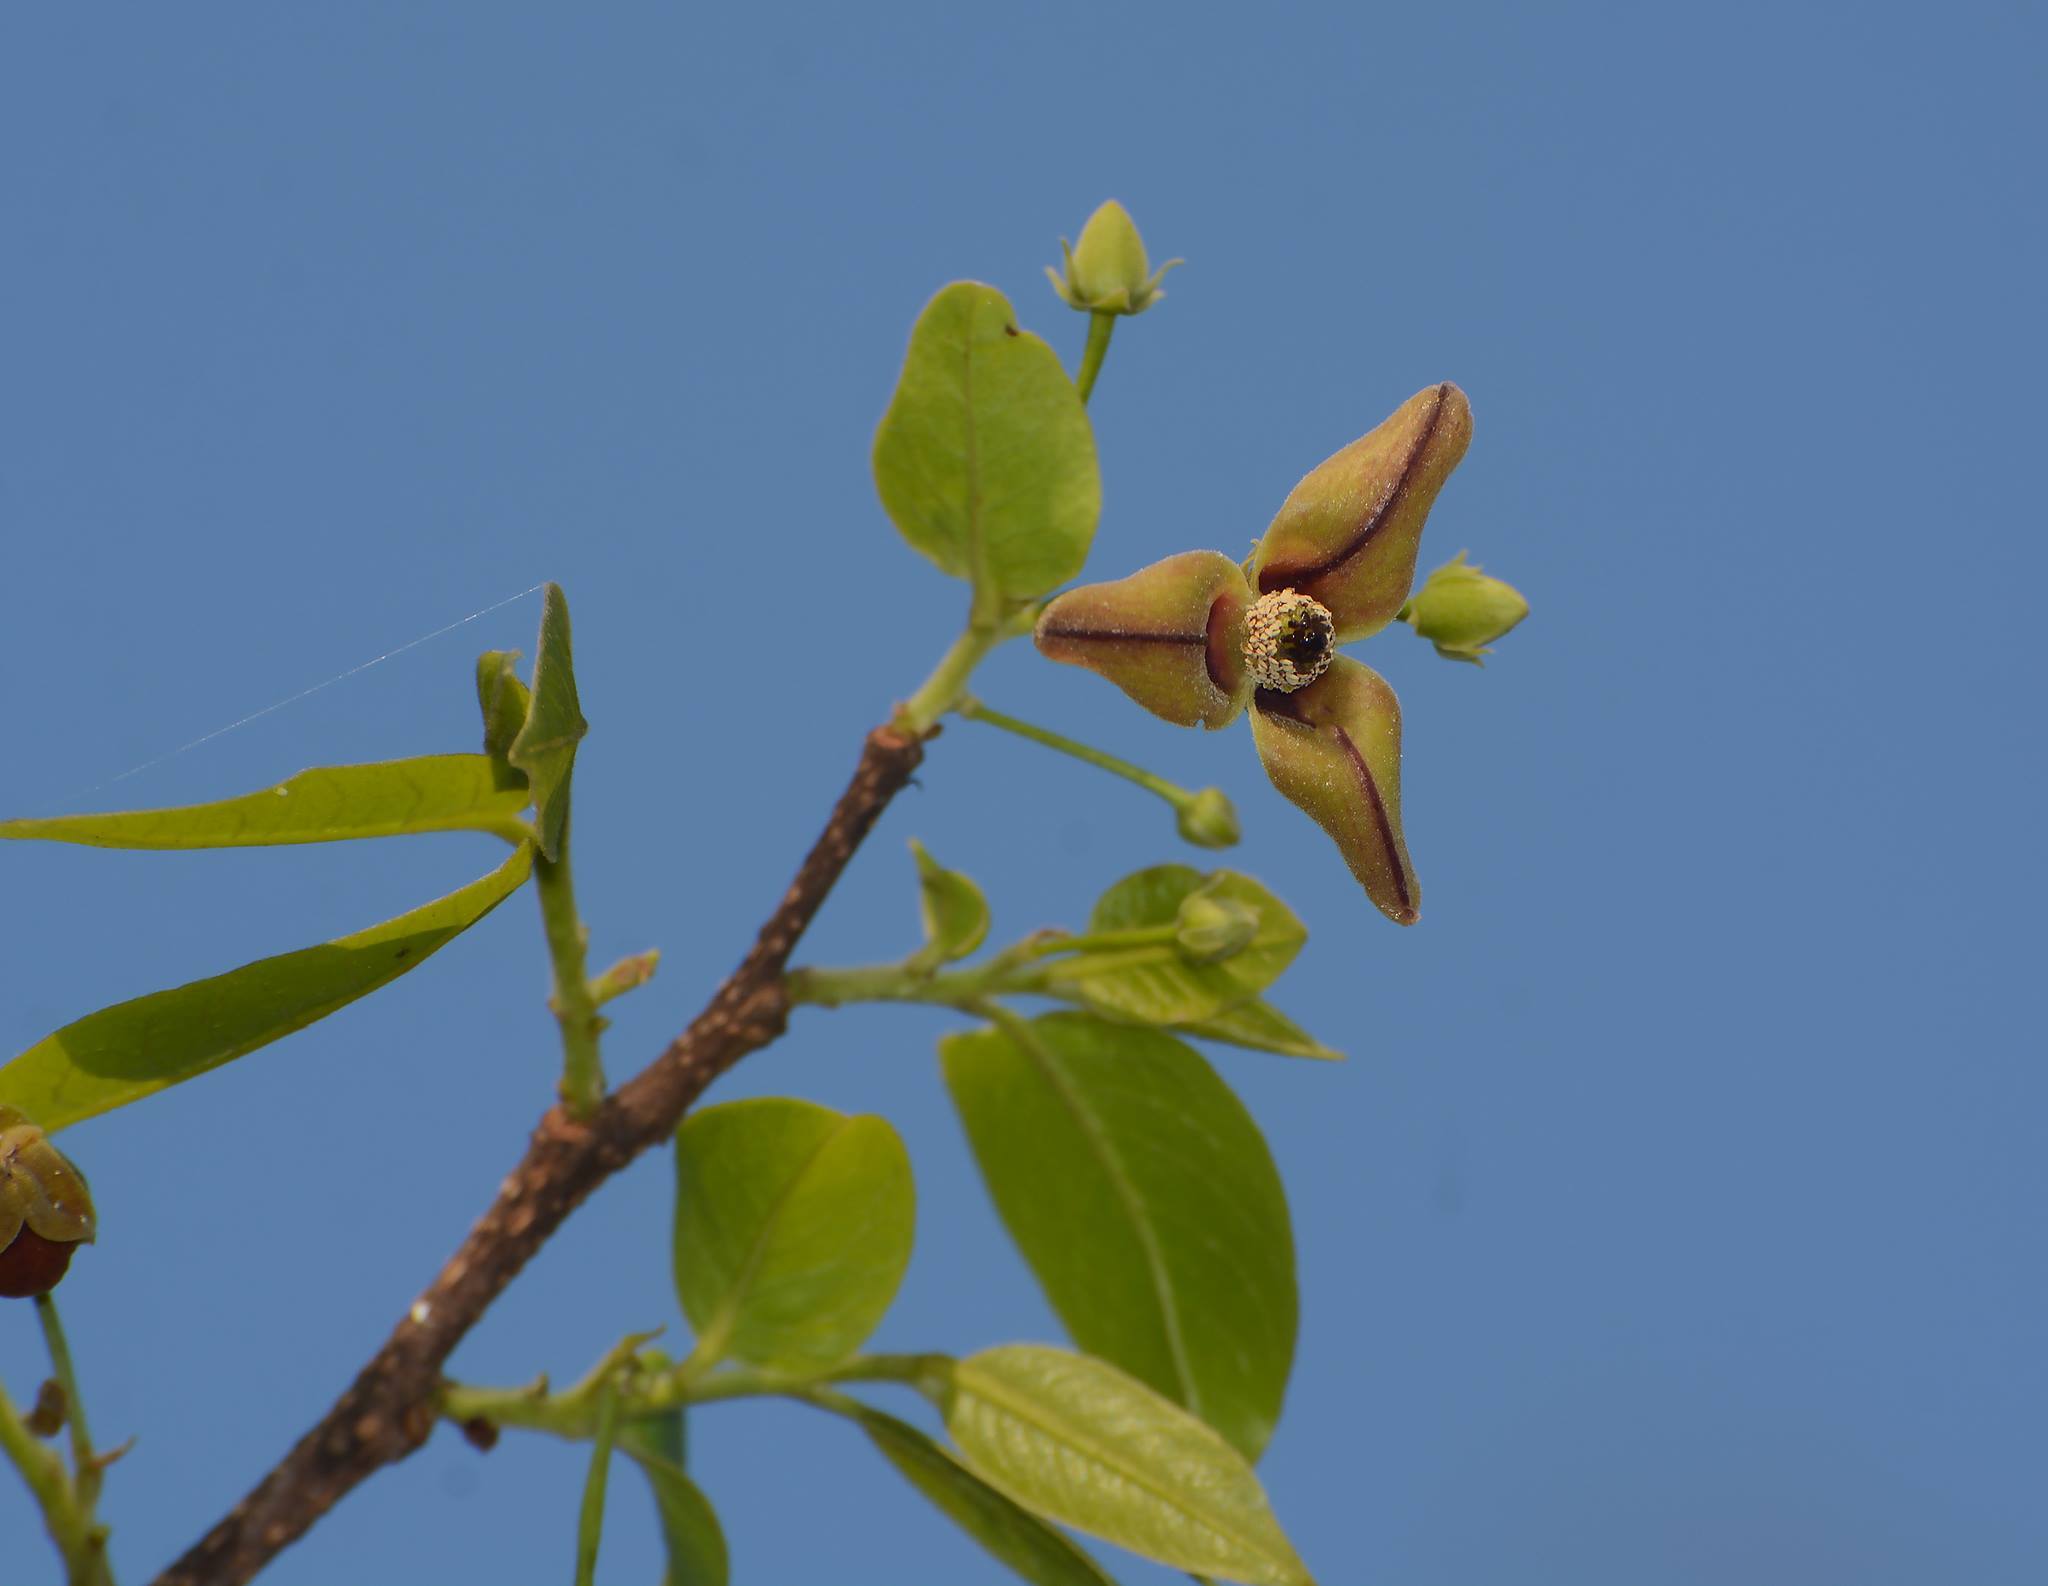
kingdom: Plantae
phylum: Tracheophyta
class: Magnoliopsida
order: Magnoliales
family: Annonaceae
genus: Miliusa
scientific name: Miliusa tomentosa
